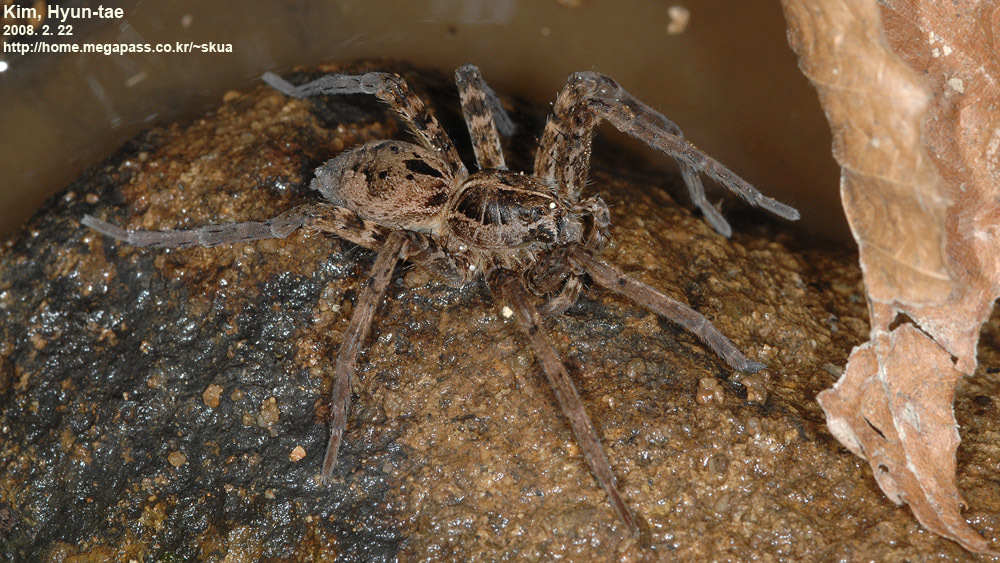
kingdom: Animalia
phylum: Arthropoda
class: Arachnida
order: Araneae
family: Pisauridae
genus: Dolomedes
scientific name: Dolomedes japonicus
